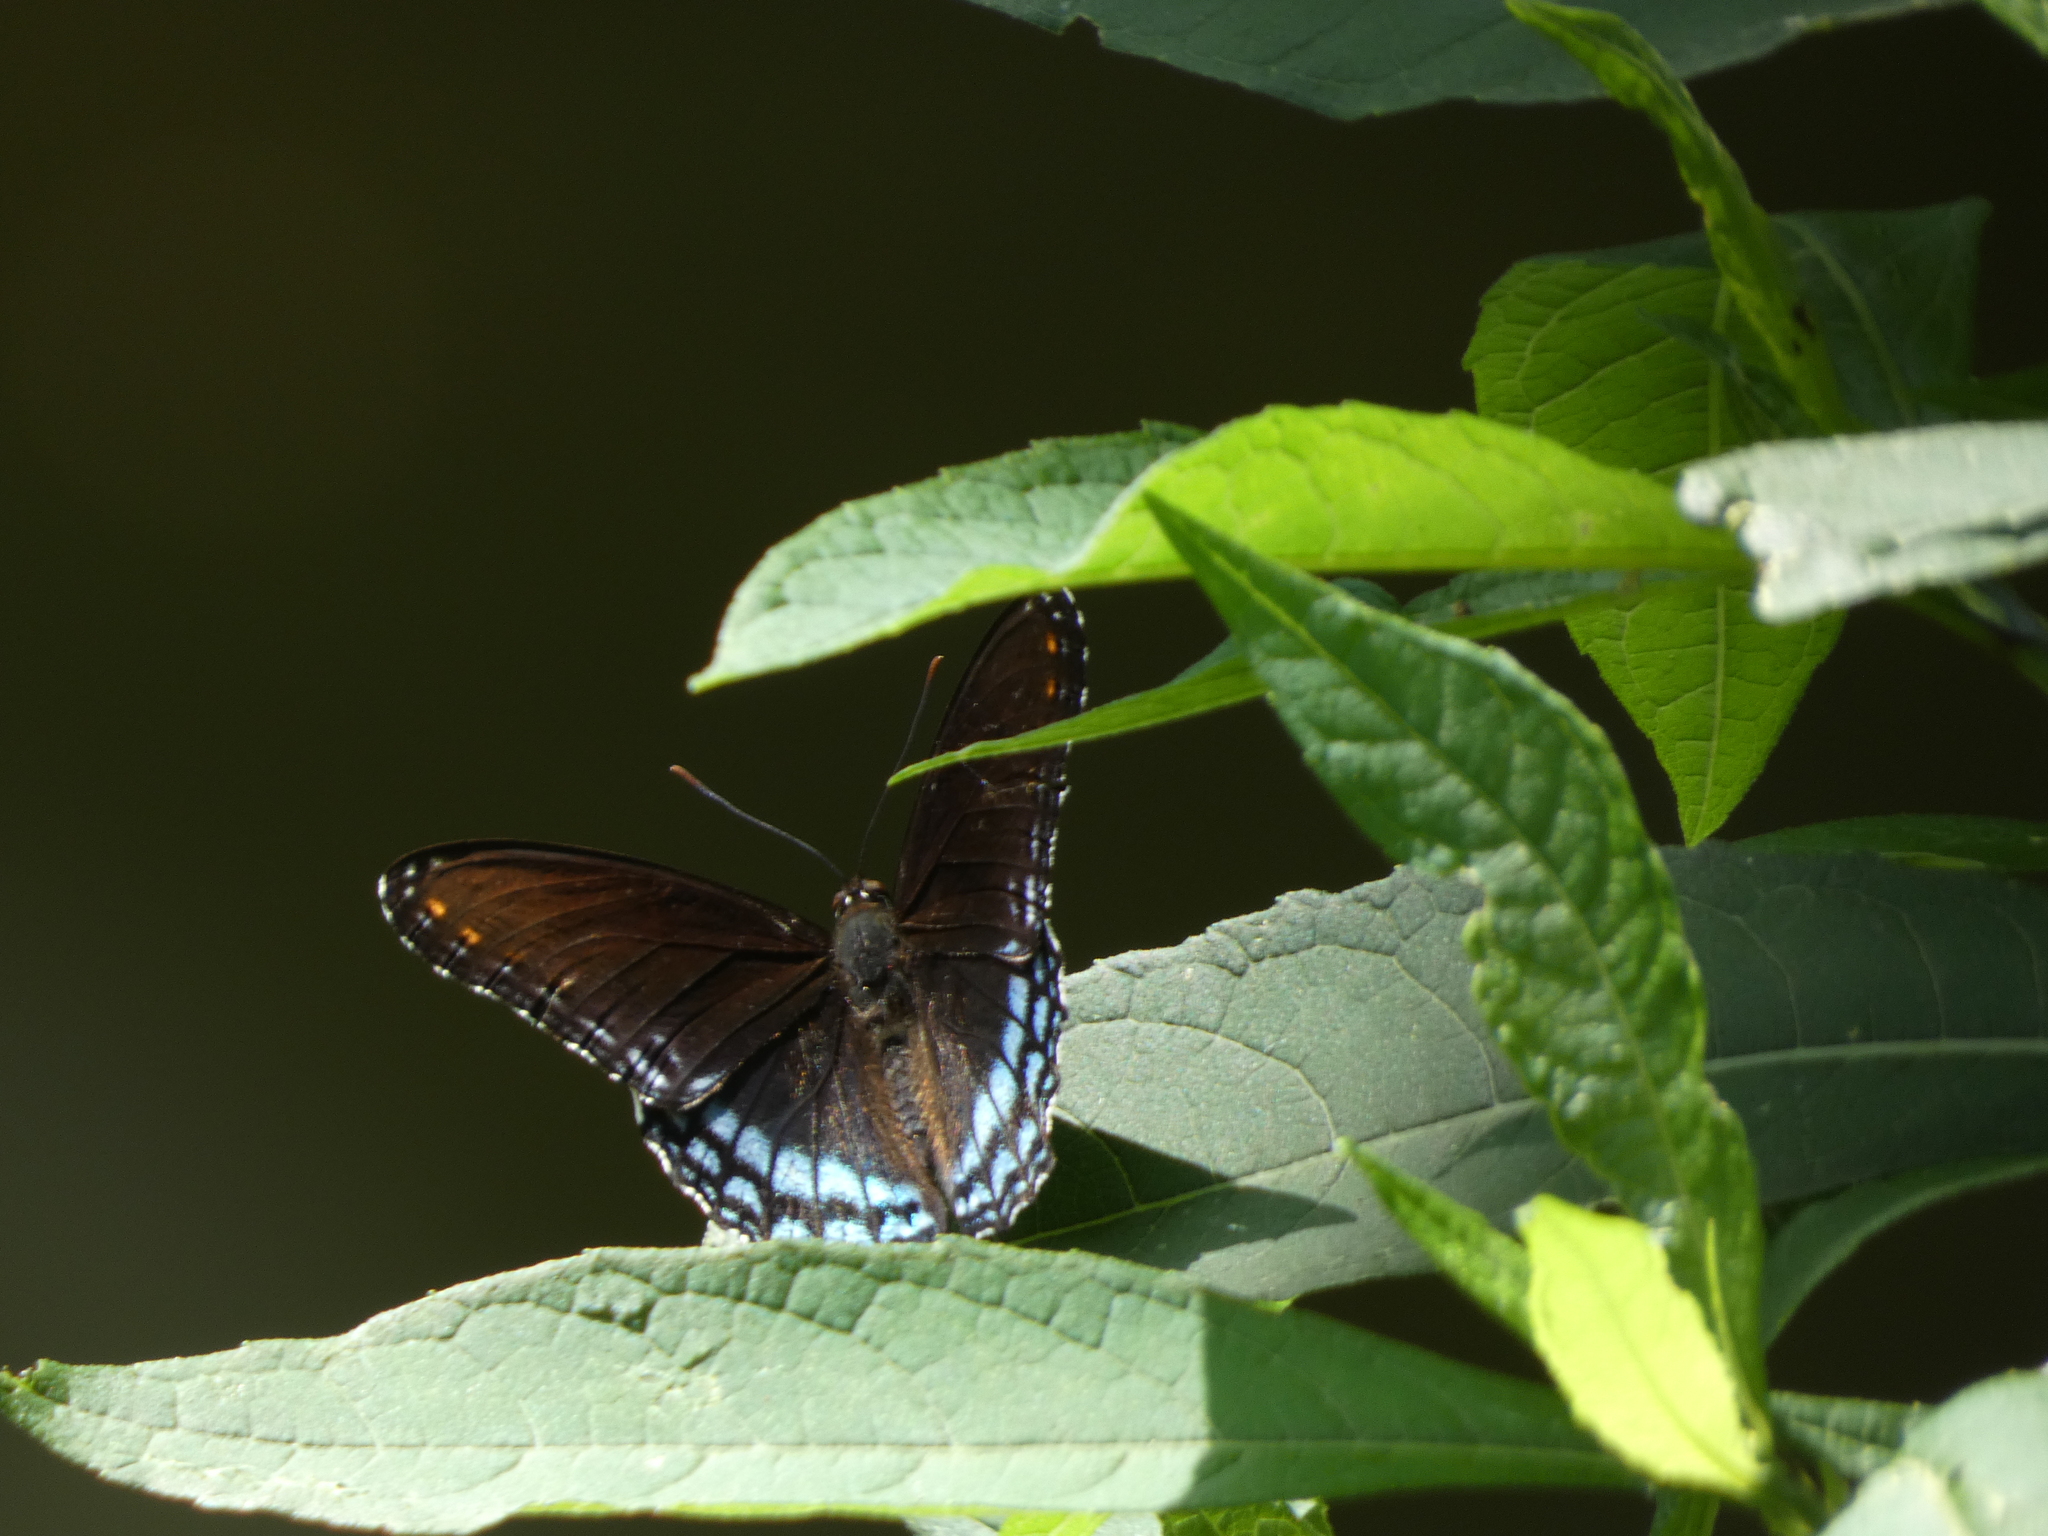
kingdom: Animalia
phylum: Arthropoda
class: Insecta
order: Lepidoptera
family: Nymphalidae
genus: Limenitis
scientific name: Limenitis arthemis
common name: Red-spotted admiral
